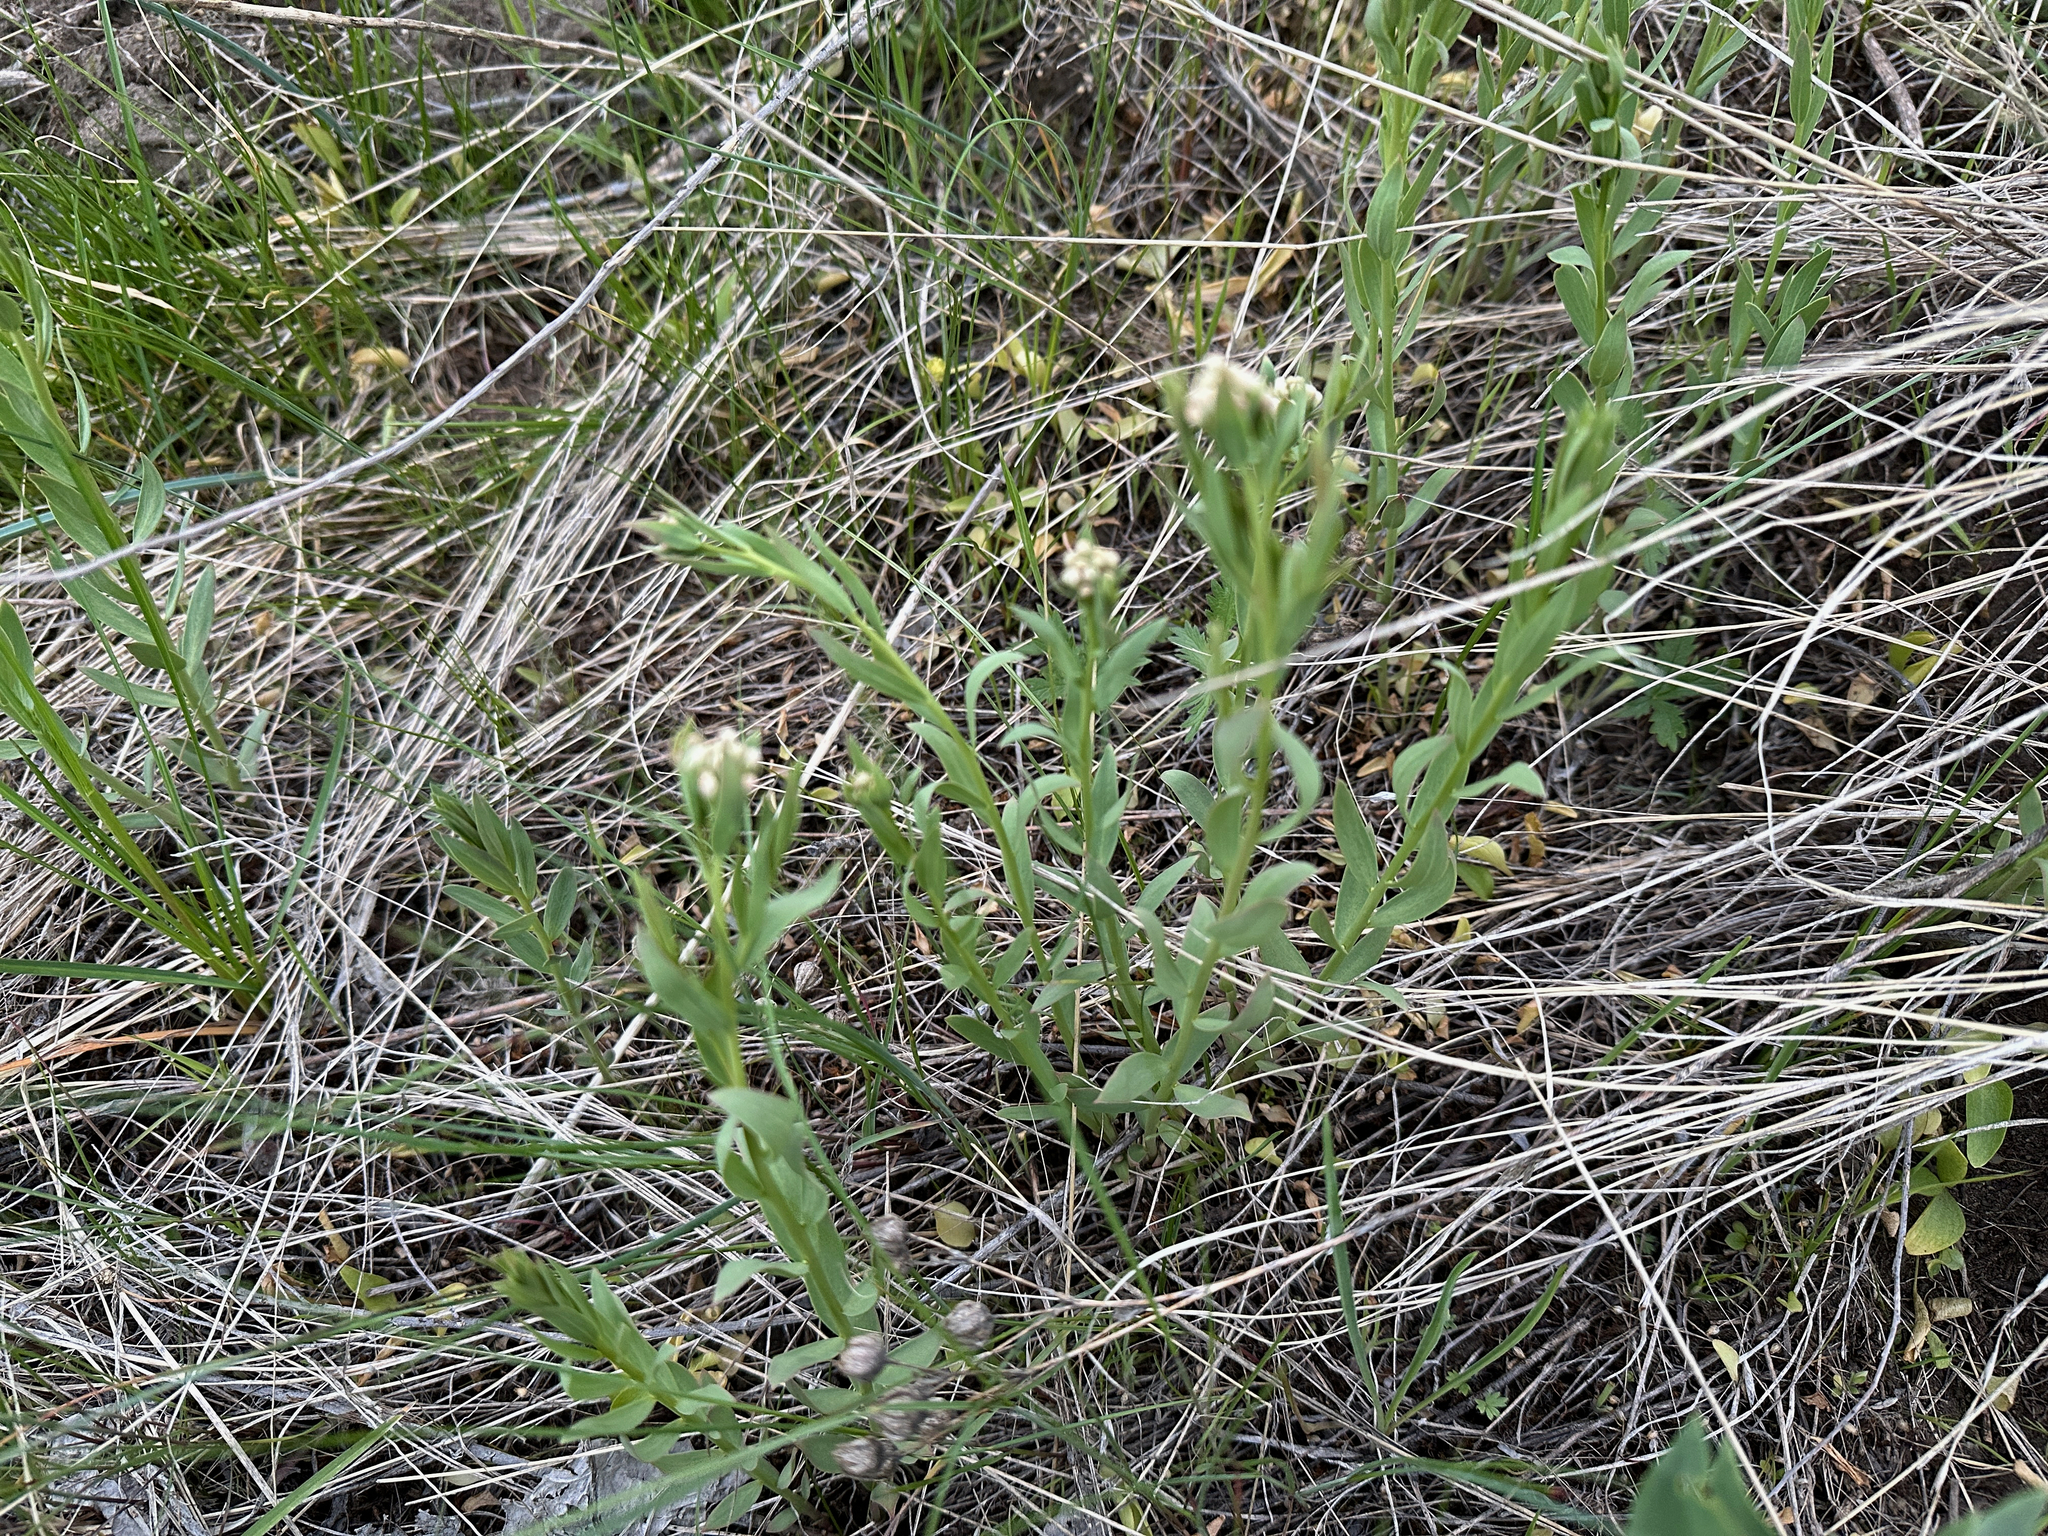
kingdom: Plantae
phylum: Tracheophyta
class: Magnoliopsida
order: Santalales
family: Comandraceae
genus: Comandra
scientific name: Comandra umbellata
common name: Bastard toadflax
